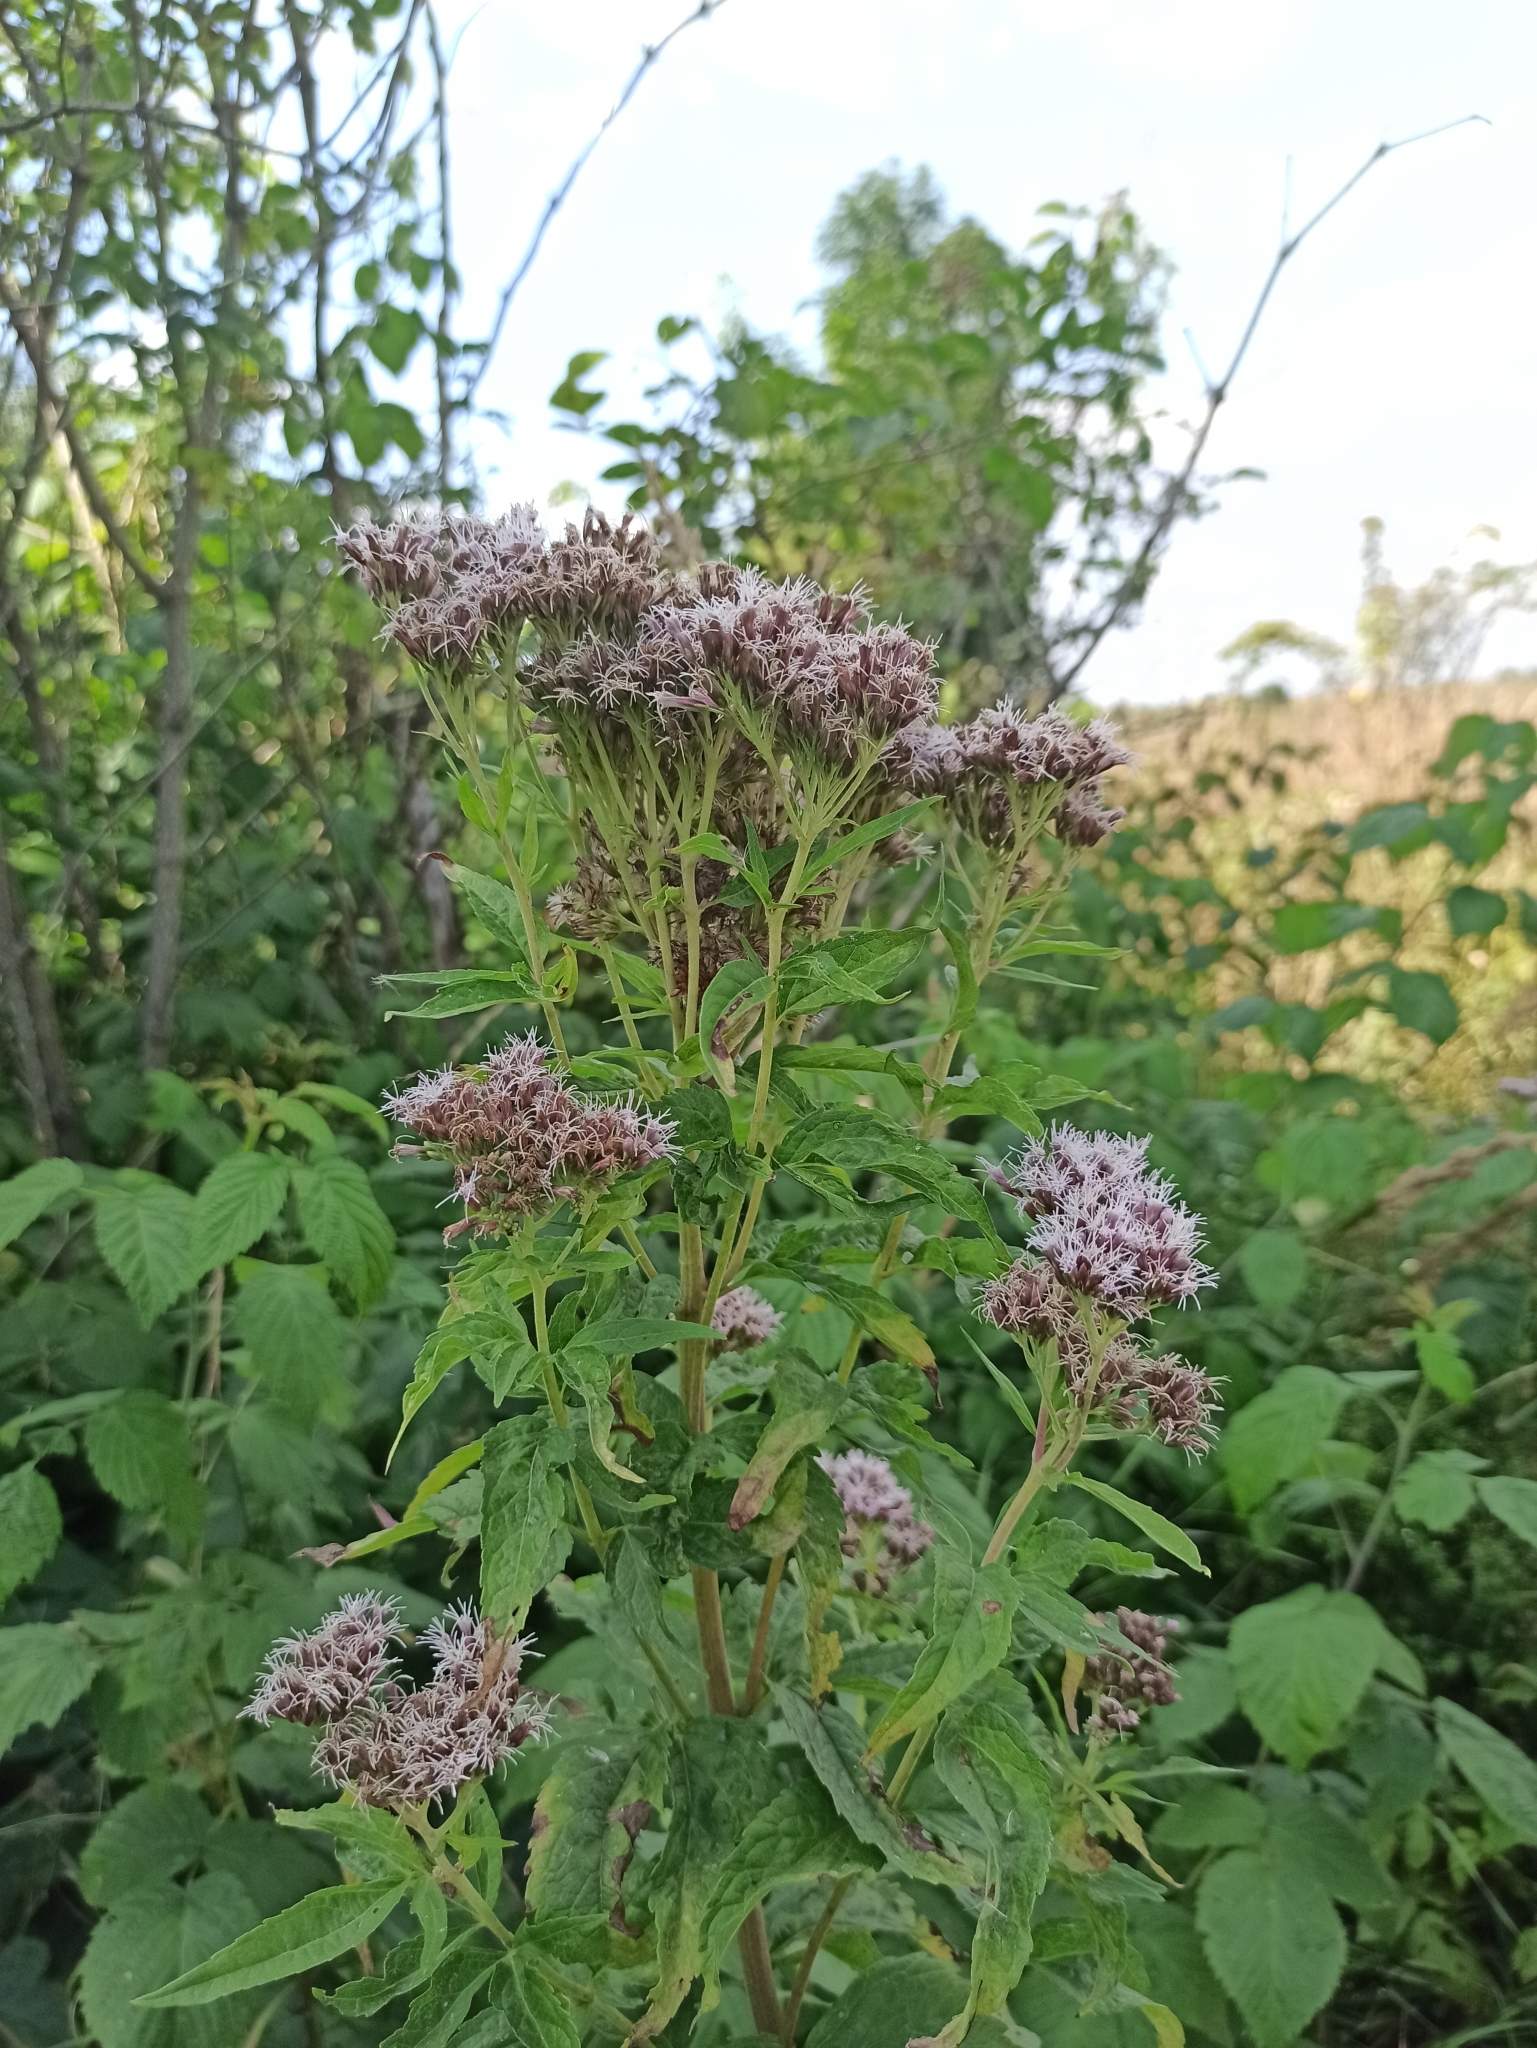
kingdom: Plantae
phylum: Tracheophyta
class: Magnoliopsida
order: Asterales
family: Asteraceae
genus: Eupatorium
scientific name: Eupatorium cannabinum
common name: Hemp-agrimony
